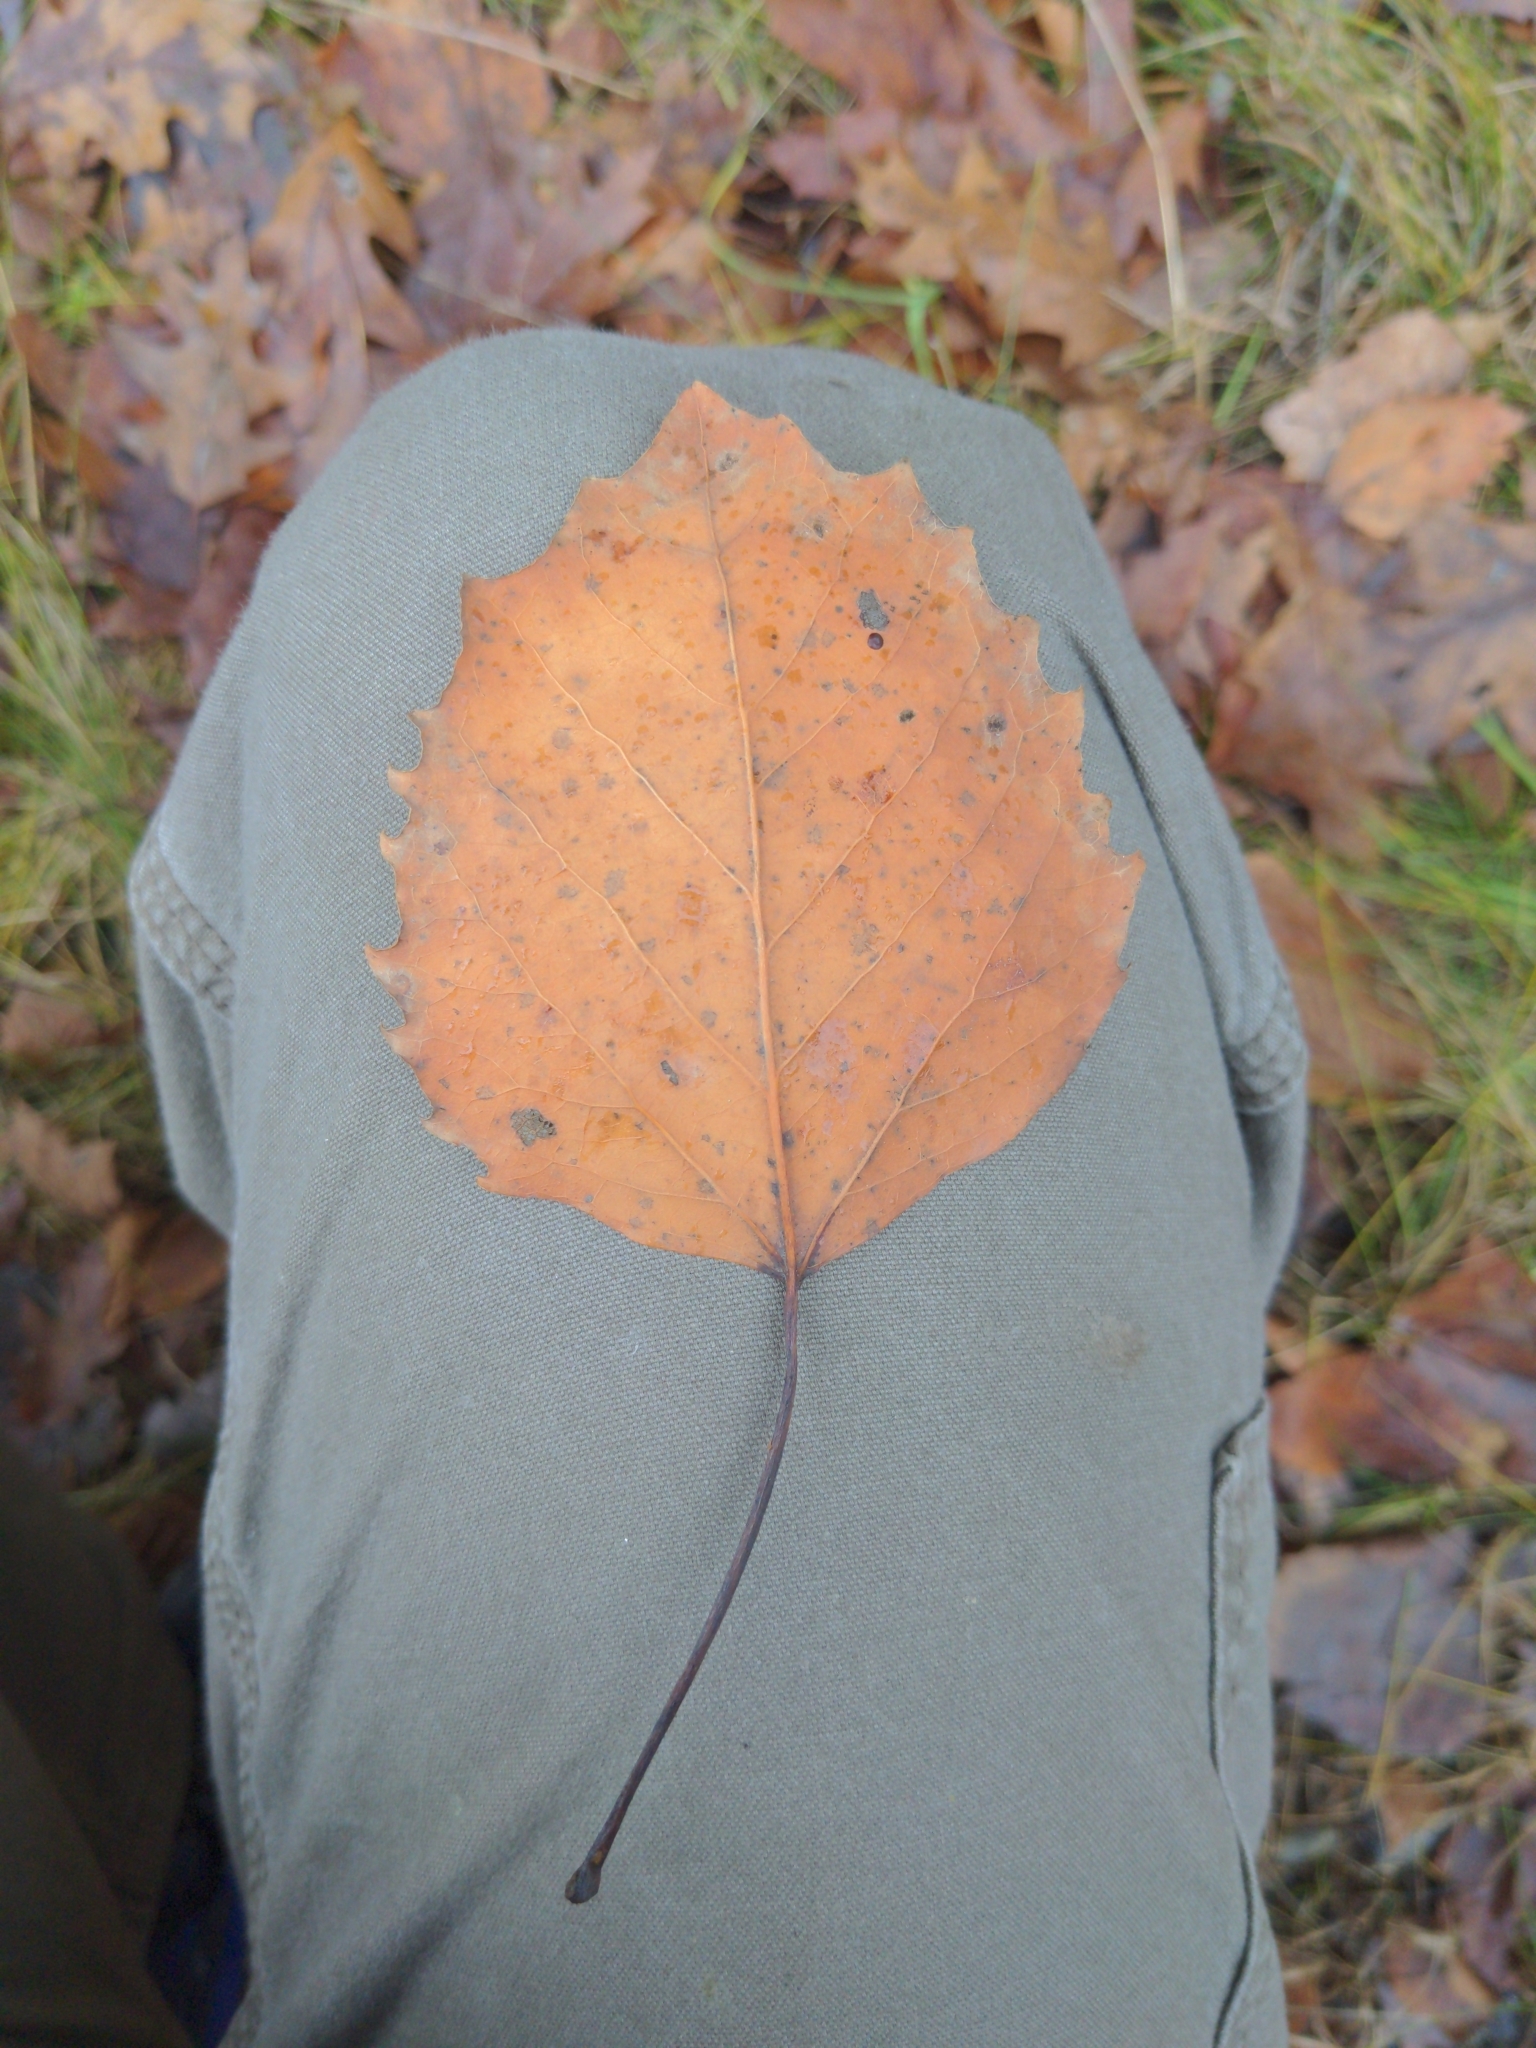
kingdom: Plantae
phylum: Tracheophyta
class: Magnoliopsida
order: Malpighiales
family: Salicaceae
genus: Populus
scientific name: Populus grandidentata
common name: Bigtooth aspen
